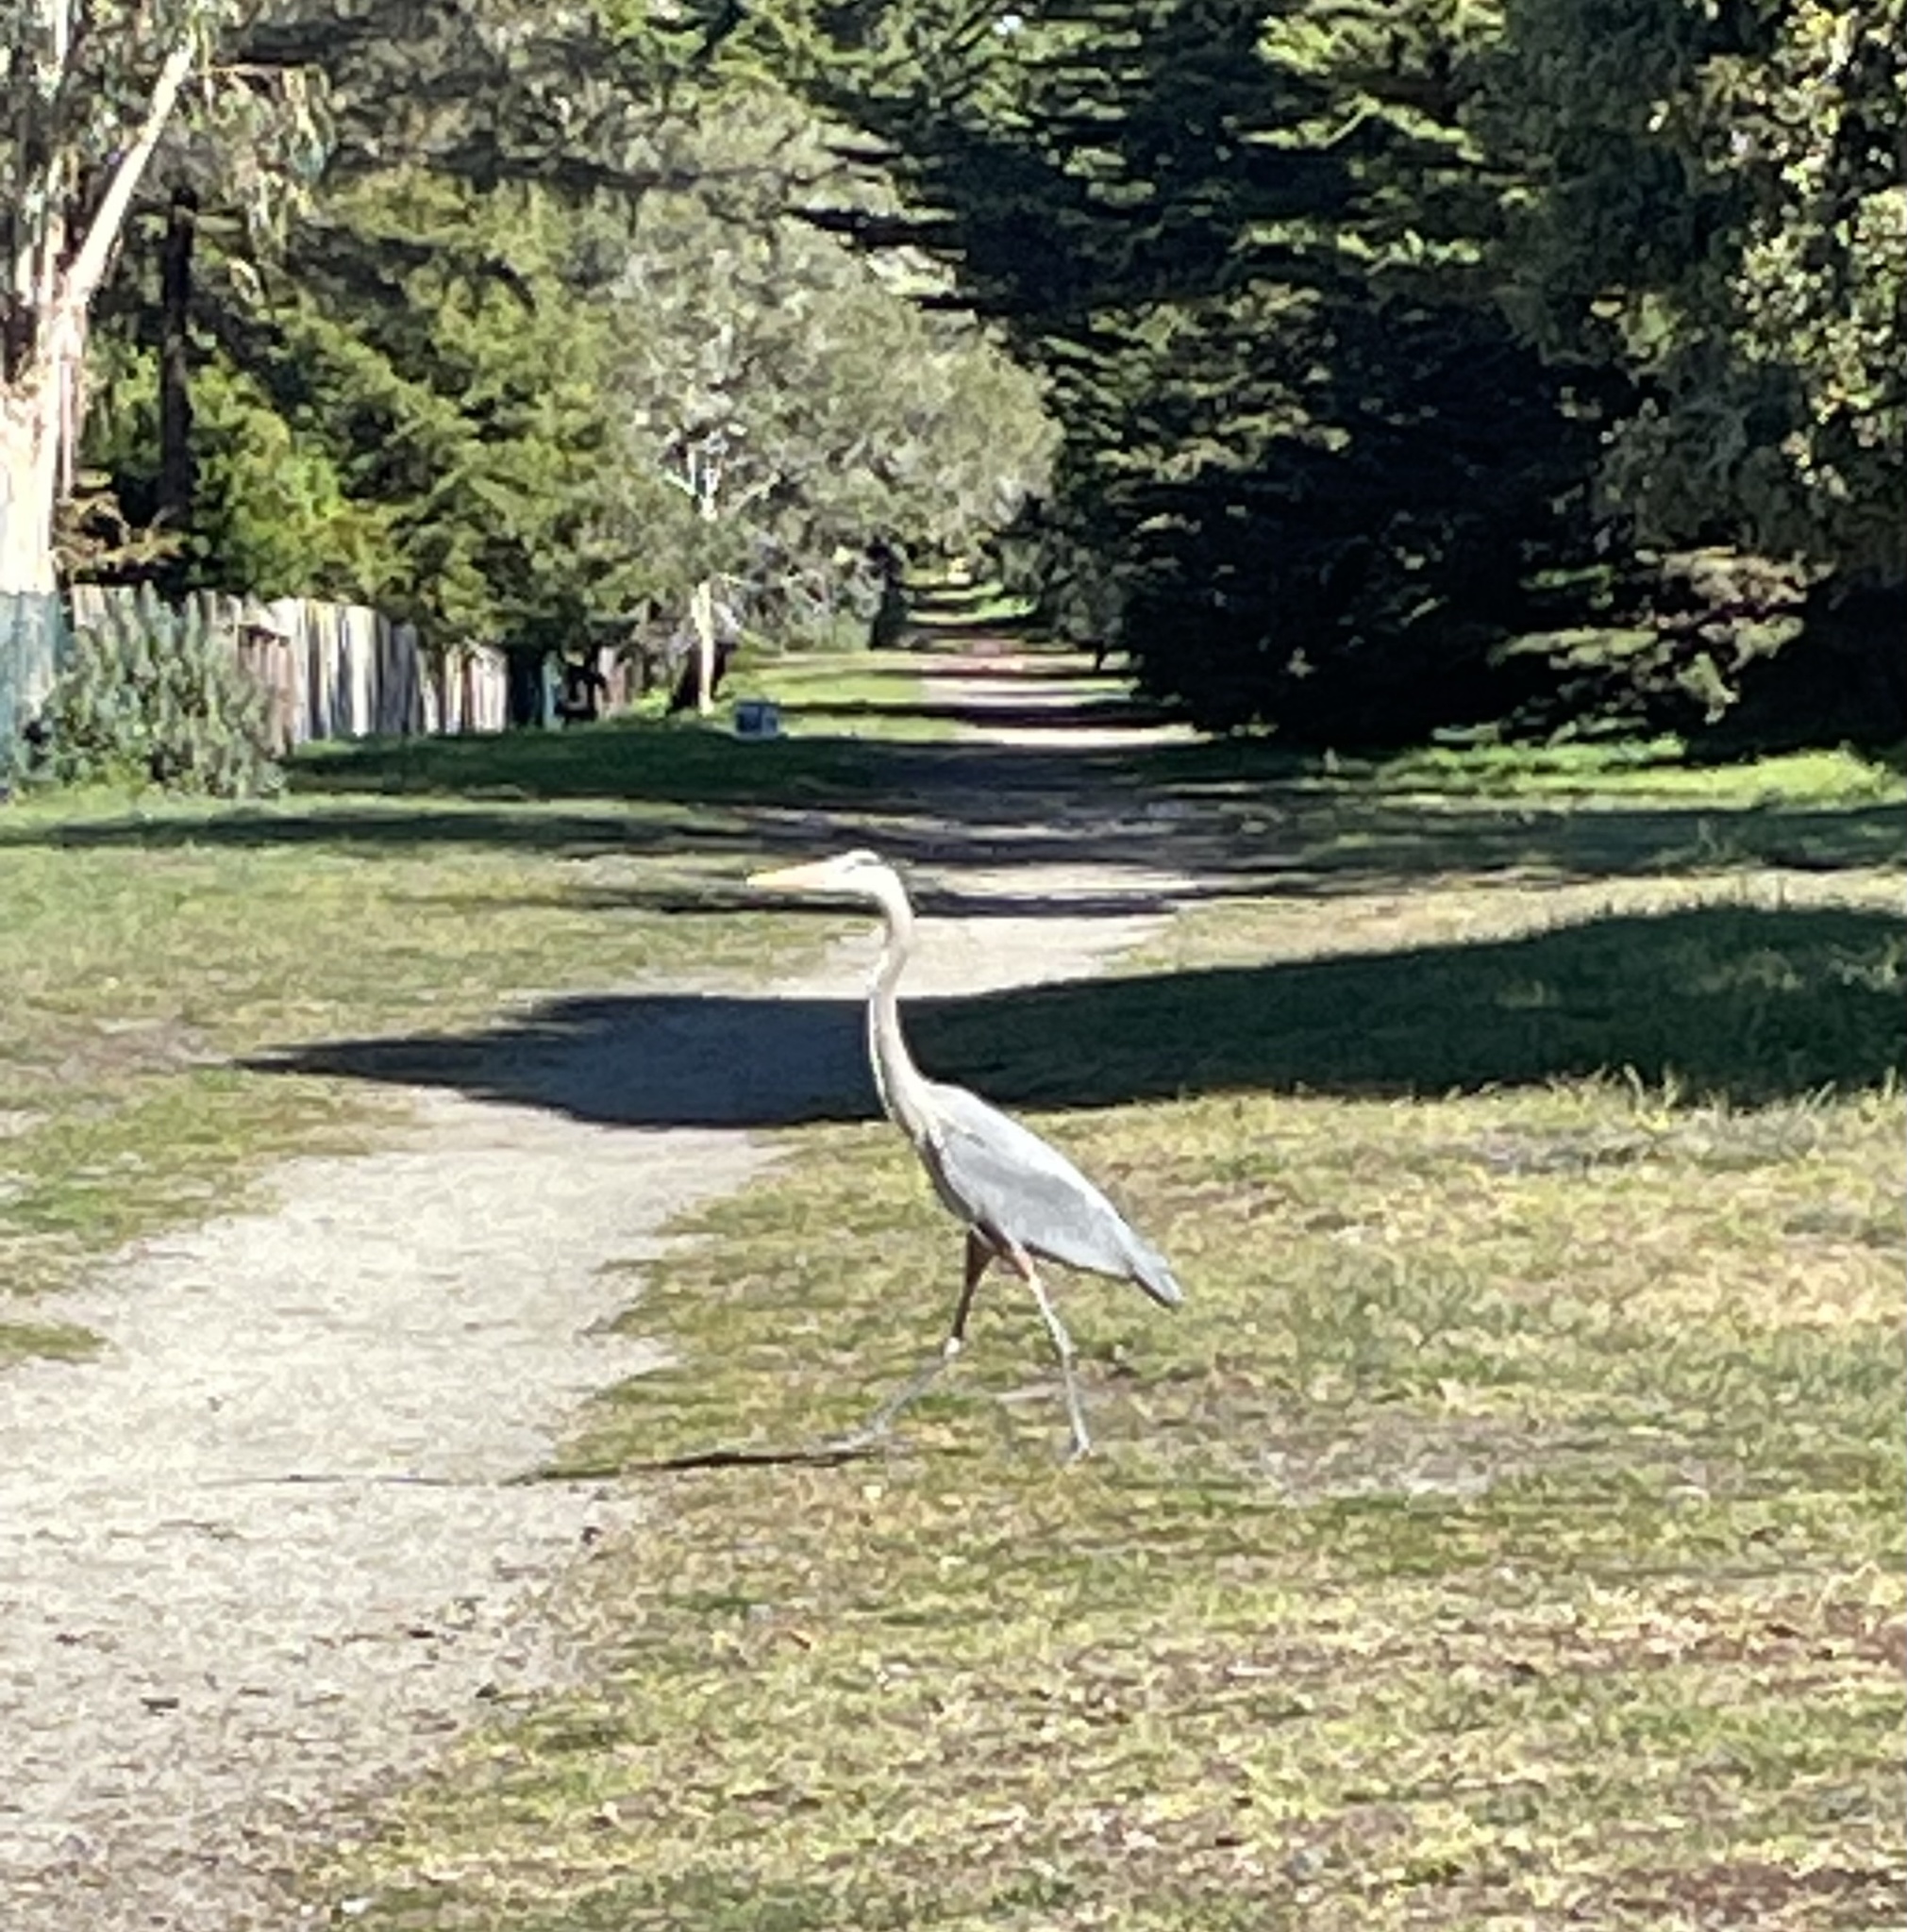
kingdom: Animalia
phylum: Chordata
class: Aves
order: Pelecaniformes
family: Ardeidae
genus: Ardea
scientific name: Ardea herodias
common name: Great blue heron
